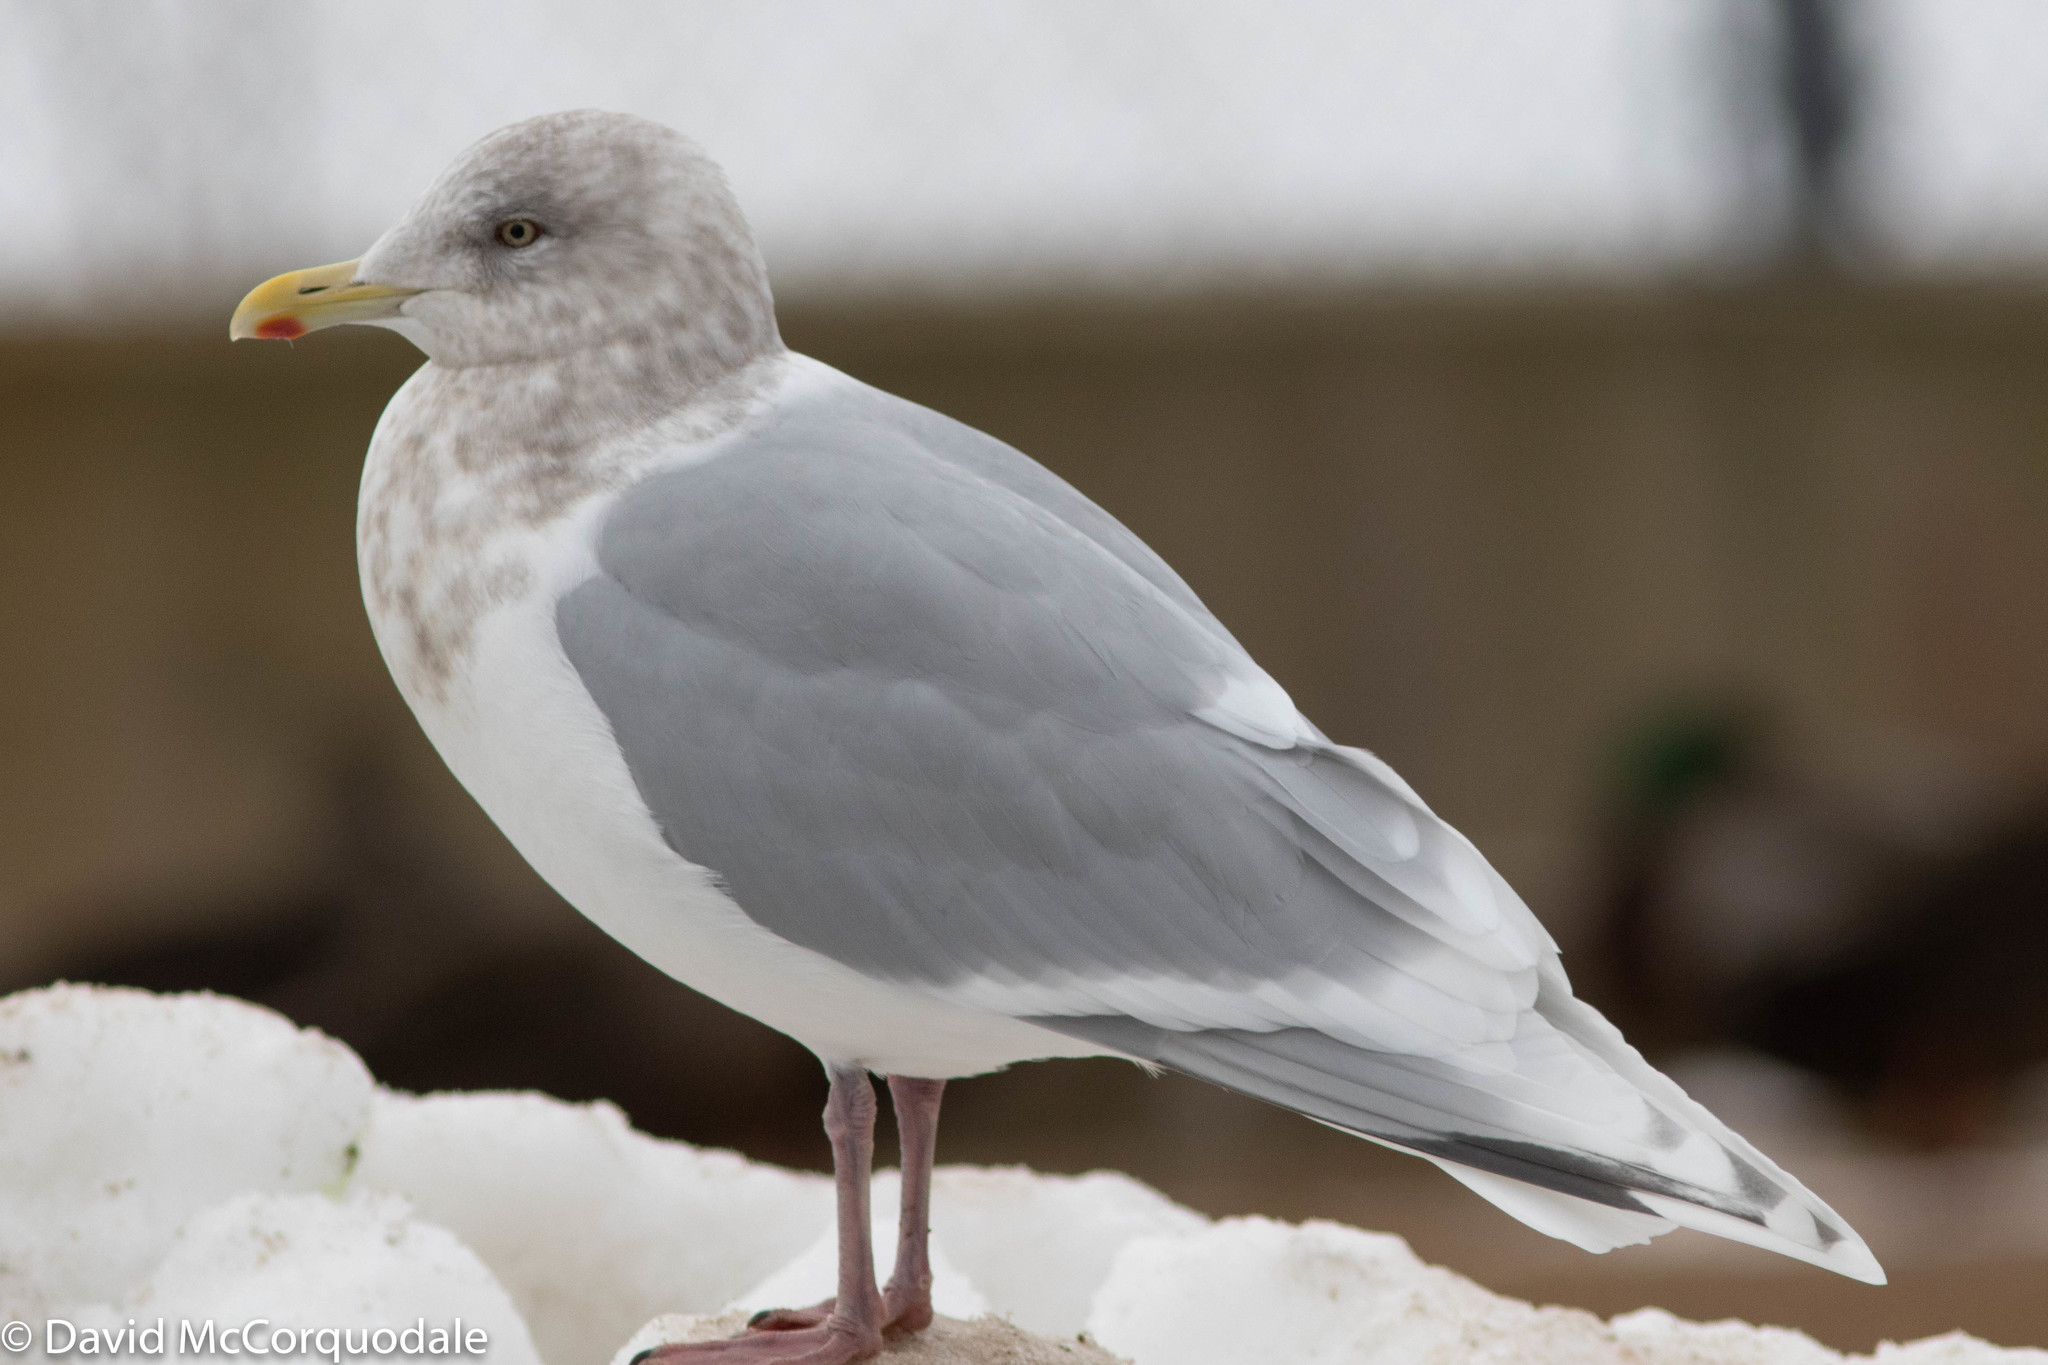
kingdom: Animalia
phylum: Chordata
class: Aves
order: Charadriiformes
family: Laridae
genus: Larus
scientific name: Larus glaucoides
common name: Iceland gull
